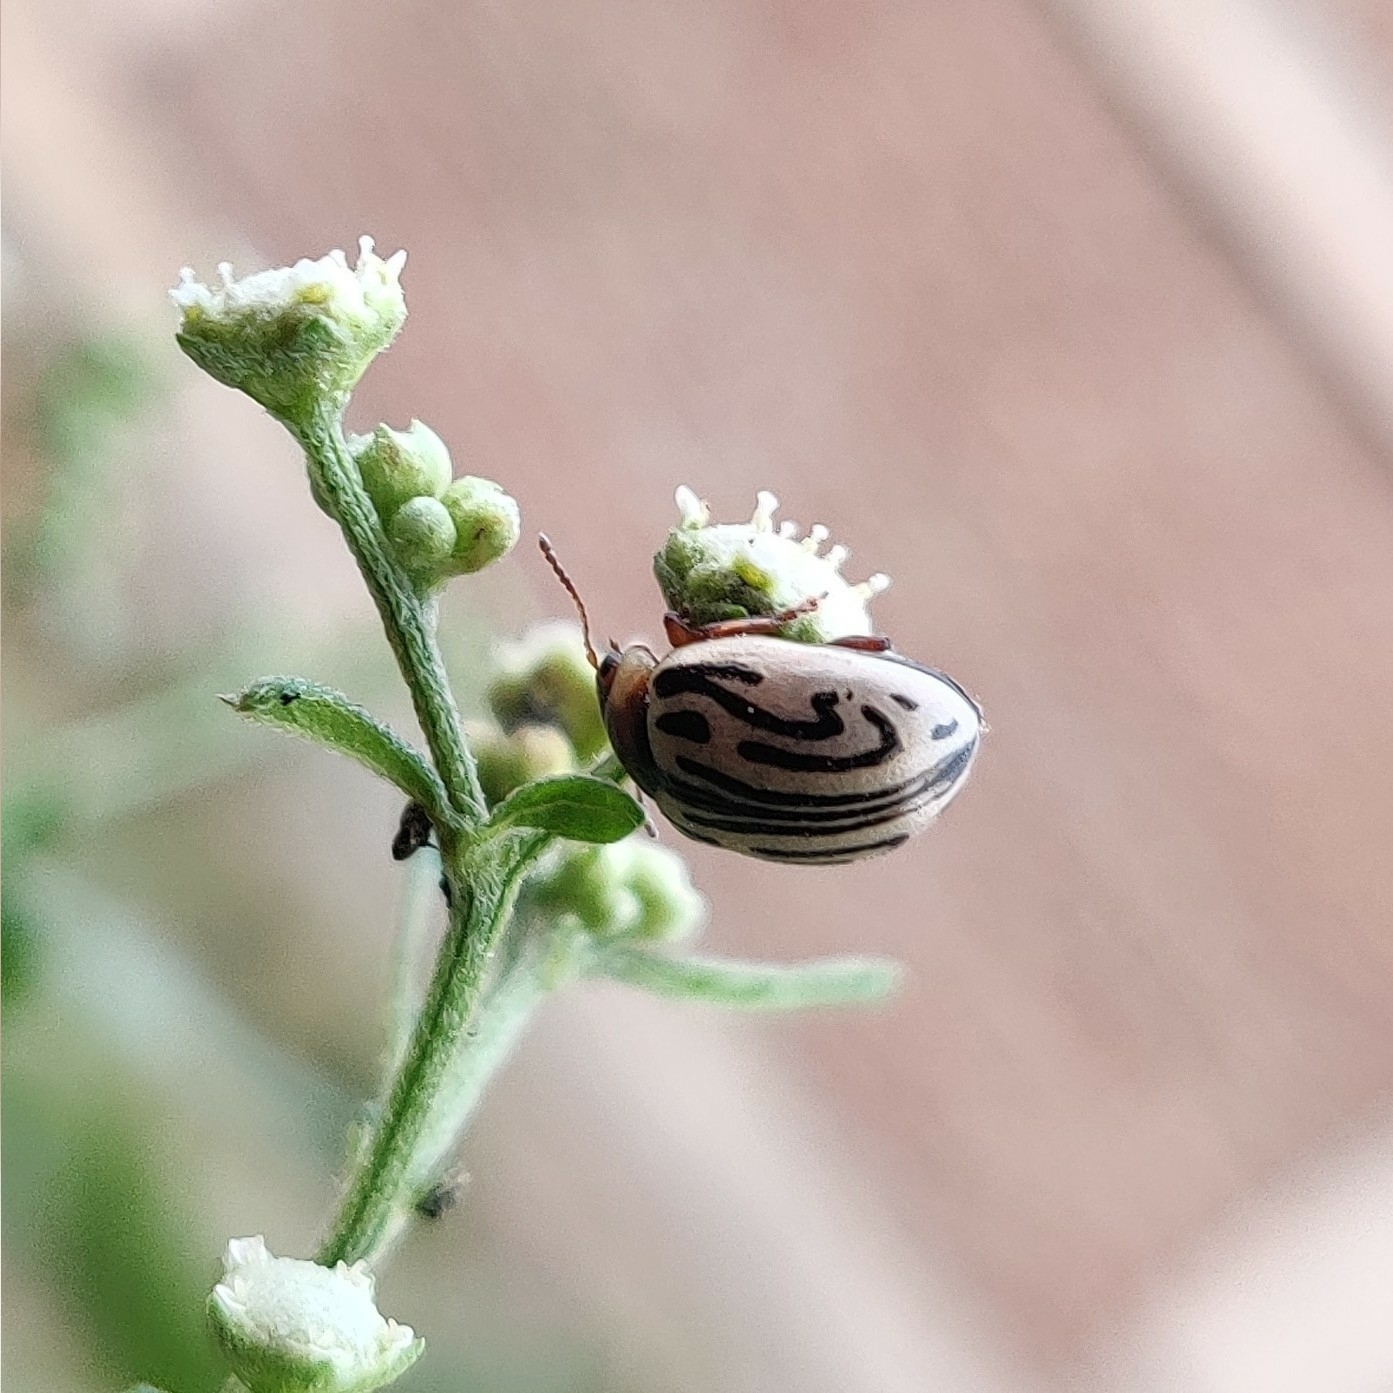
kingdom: Animalia
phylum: Arthropoda
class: Insecta
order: Coleoptera
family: Chrysomelidae
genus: Calligrapha
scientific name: Calligrapha
